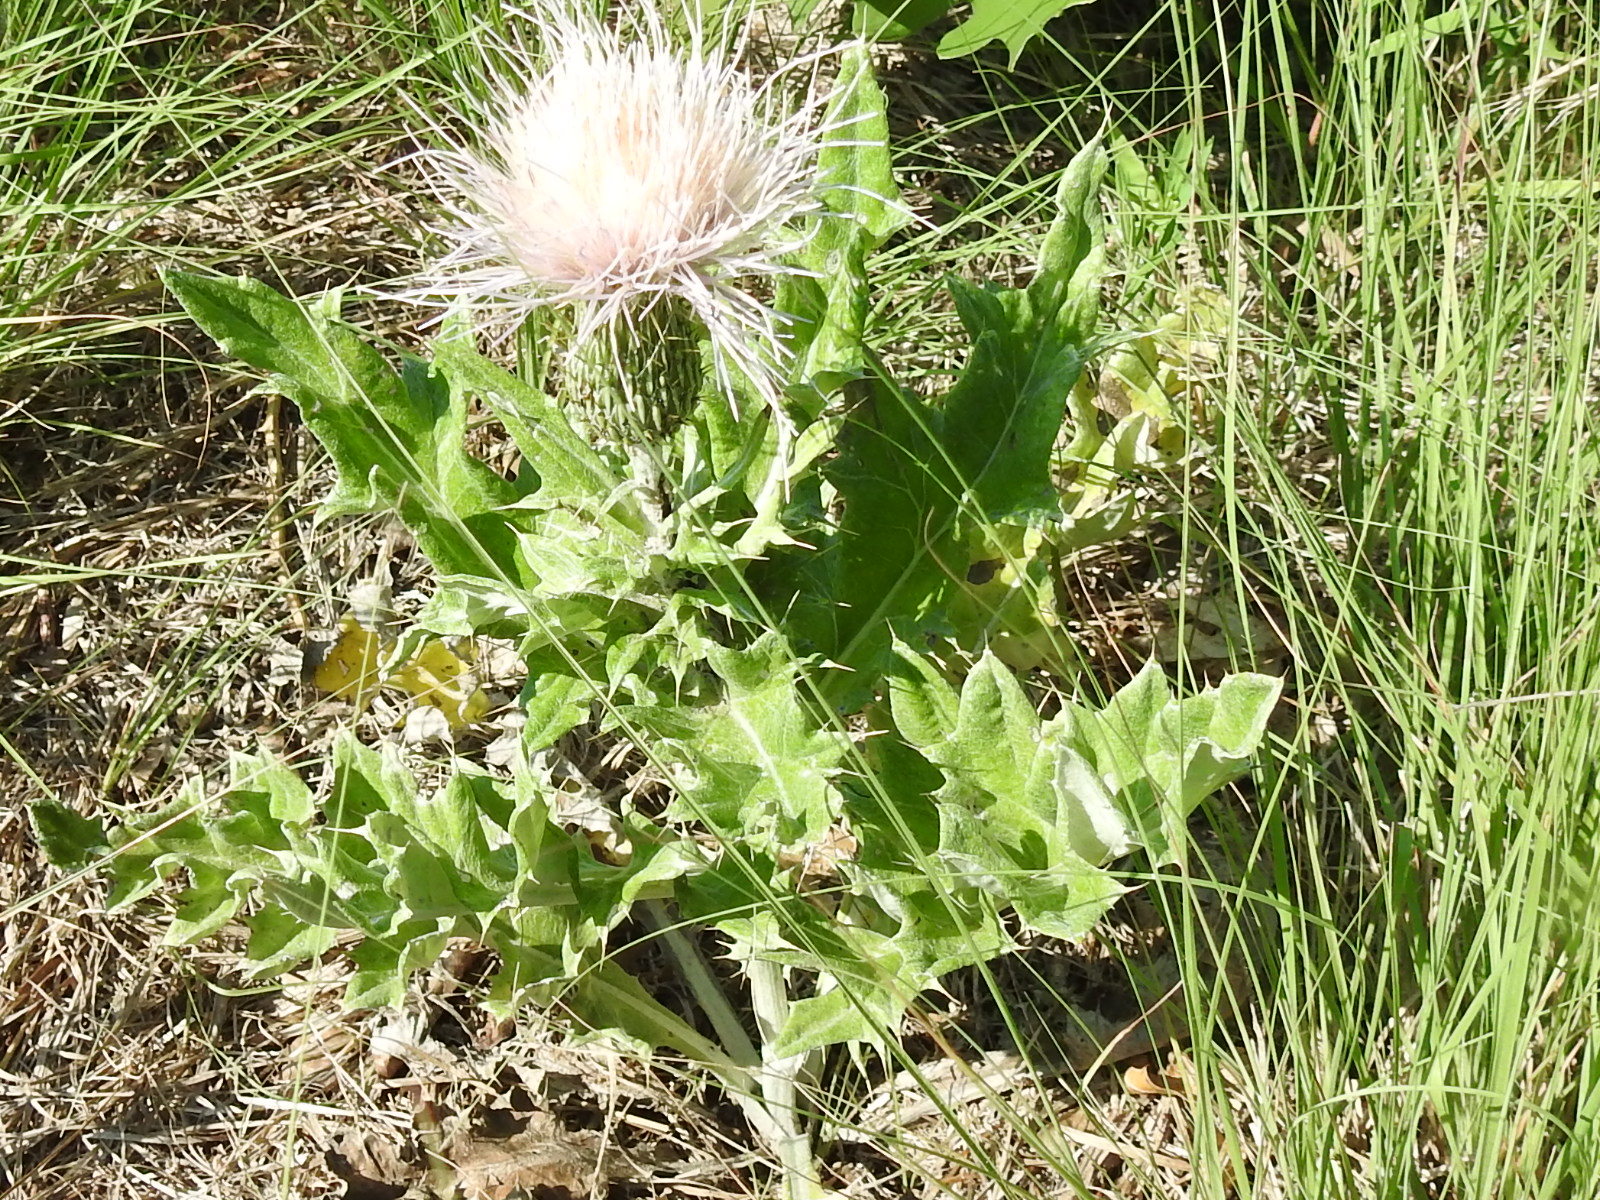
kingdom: Plantae
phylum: Tracheophyta
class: Magnoliopsida
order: Asterales
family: Asteraceae
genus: Cirsium
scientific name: Cirsium undulatum
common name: Pasture thistle
